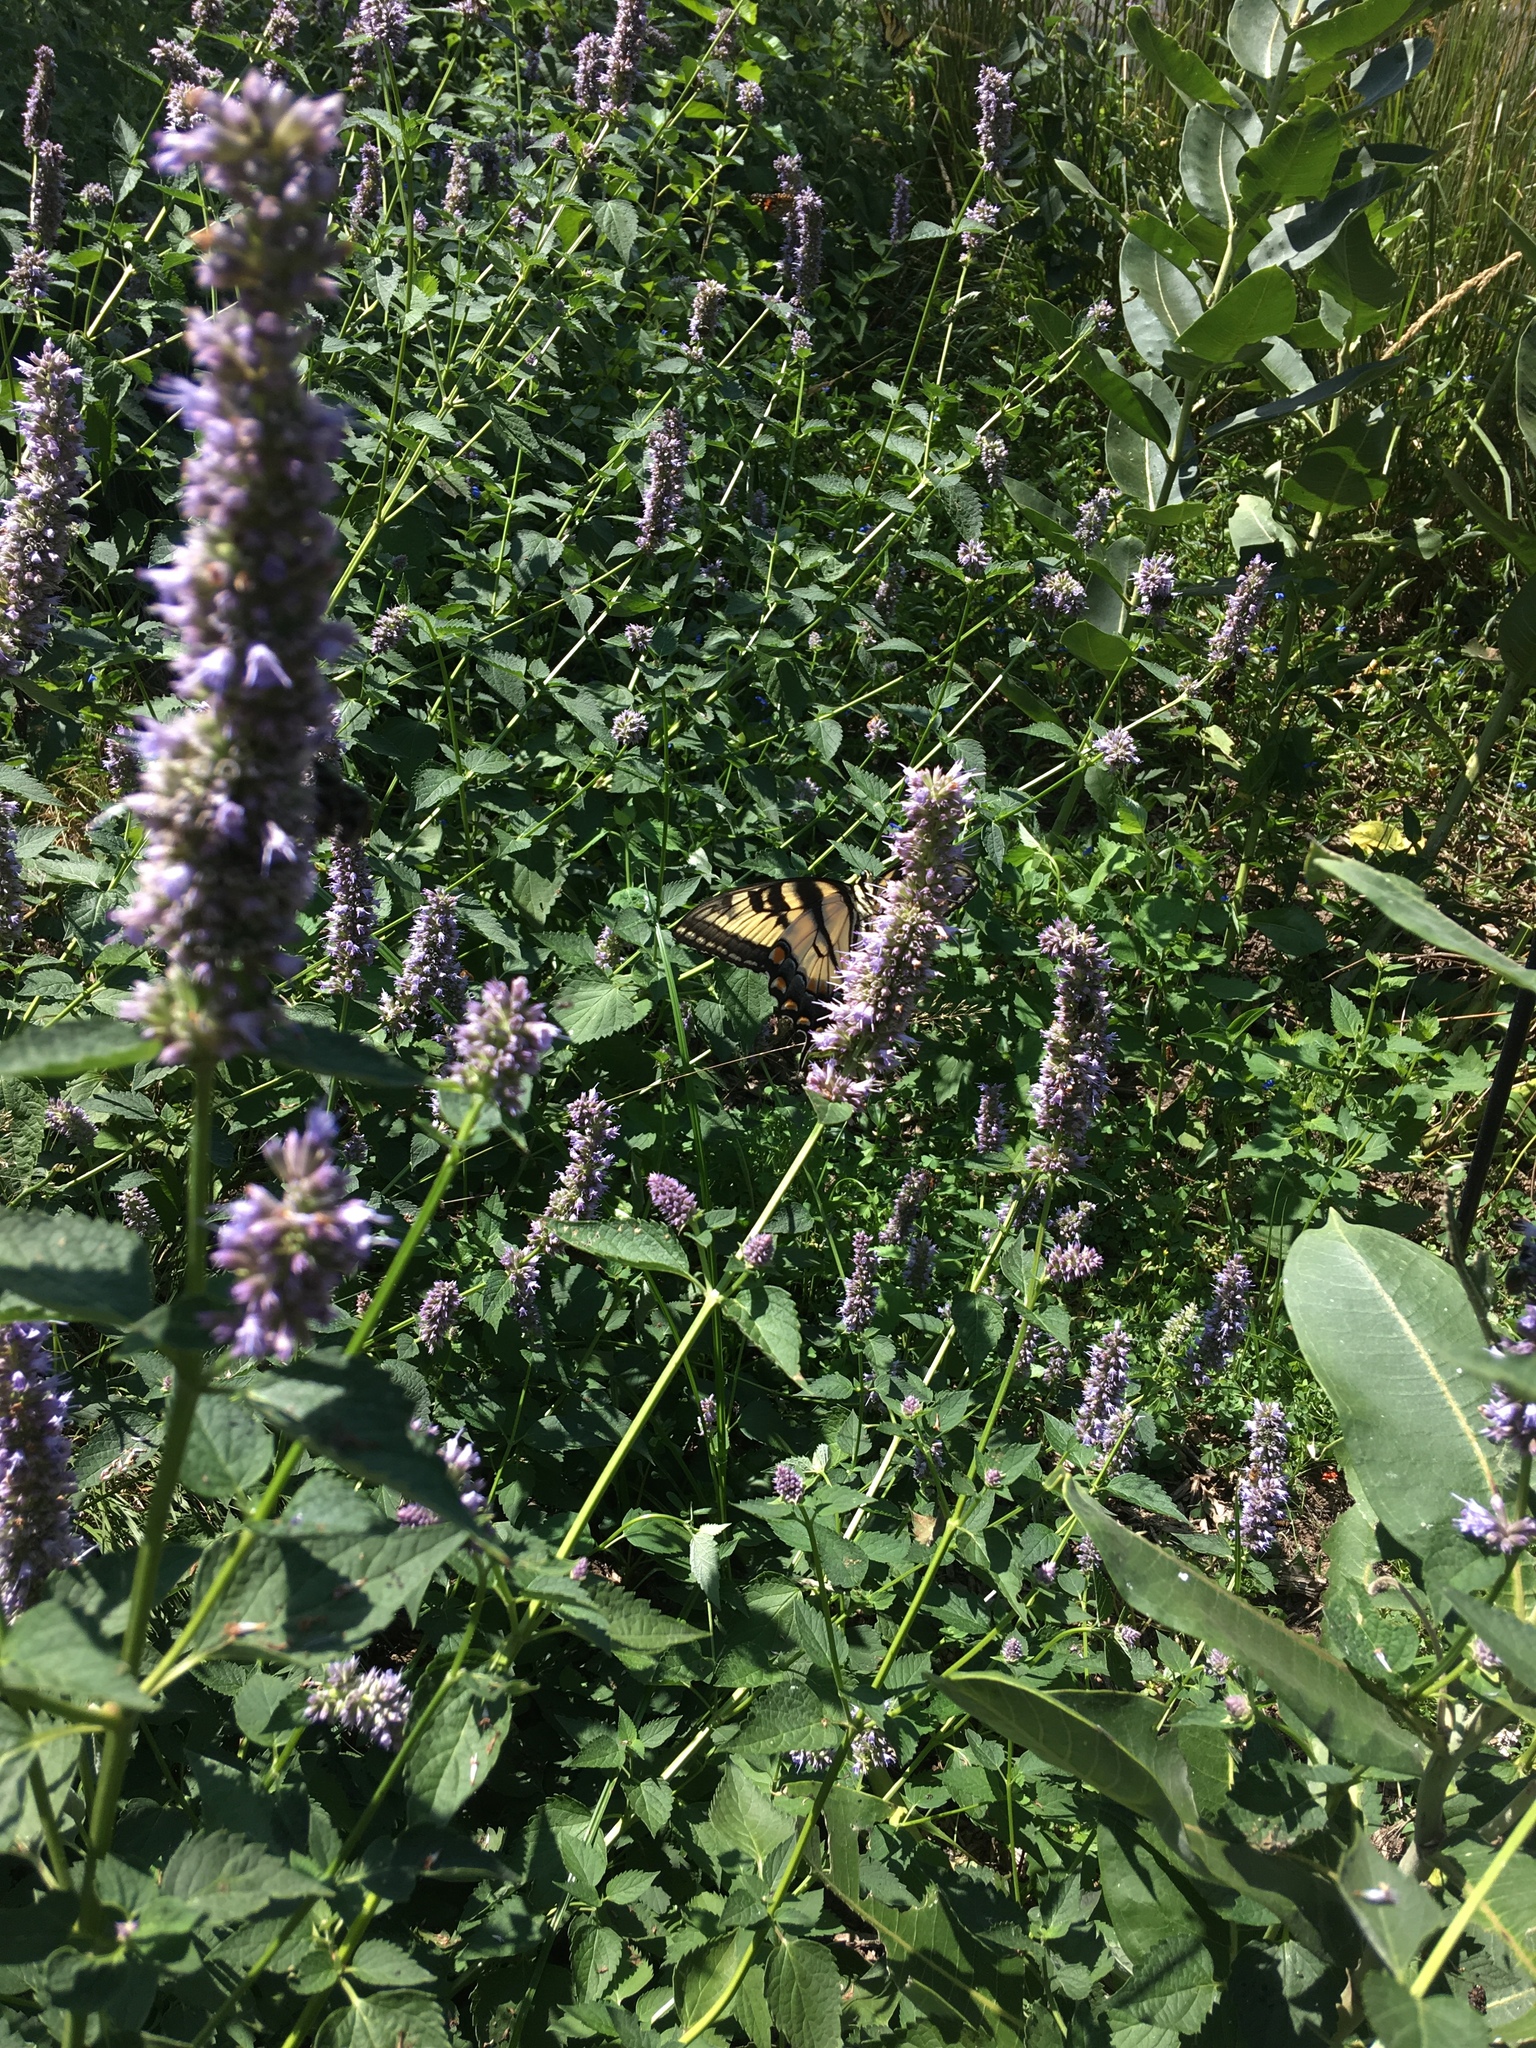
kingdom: Animalia
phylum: Arthropoda
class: Insecta
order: Lepidoptera
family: Papilionidae
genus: Papilio
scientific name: Papilio glaucus
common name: Tiger swallowtail
